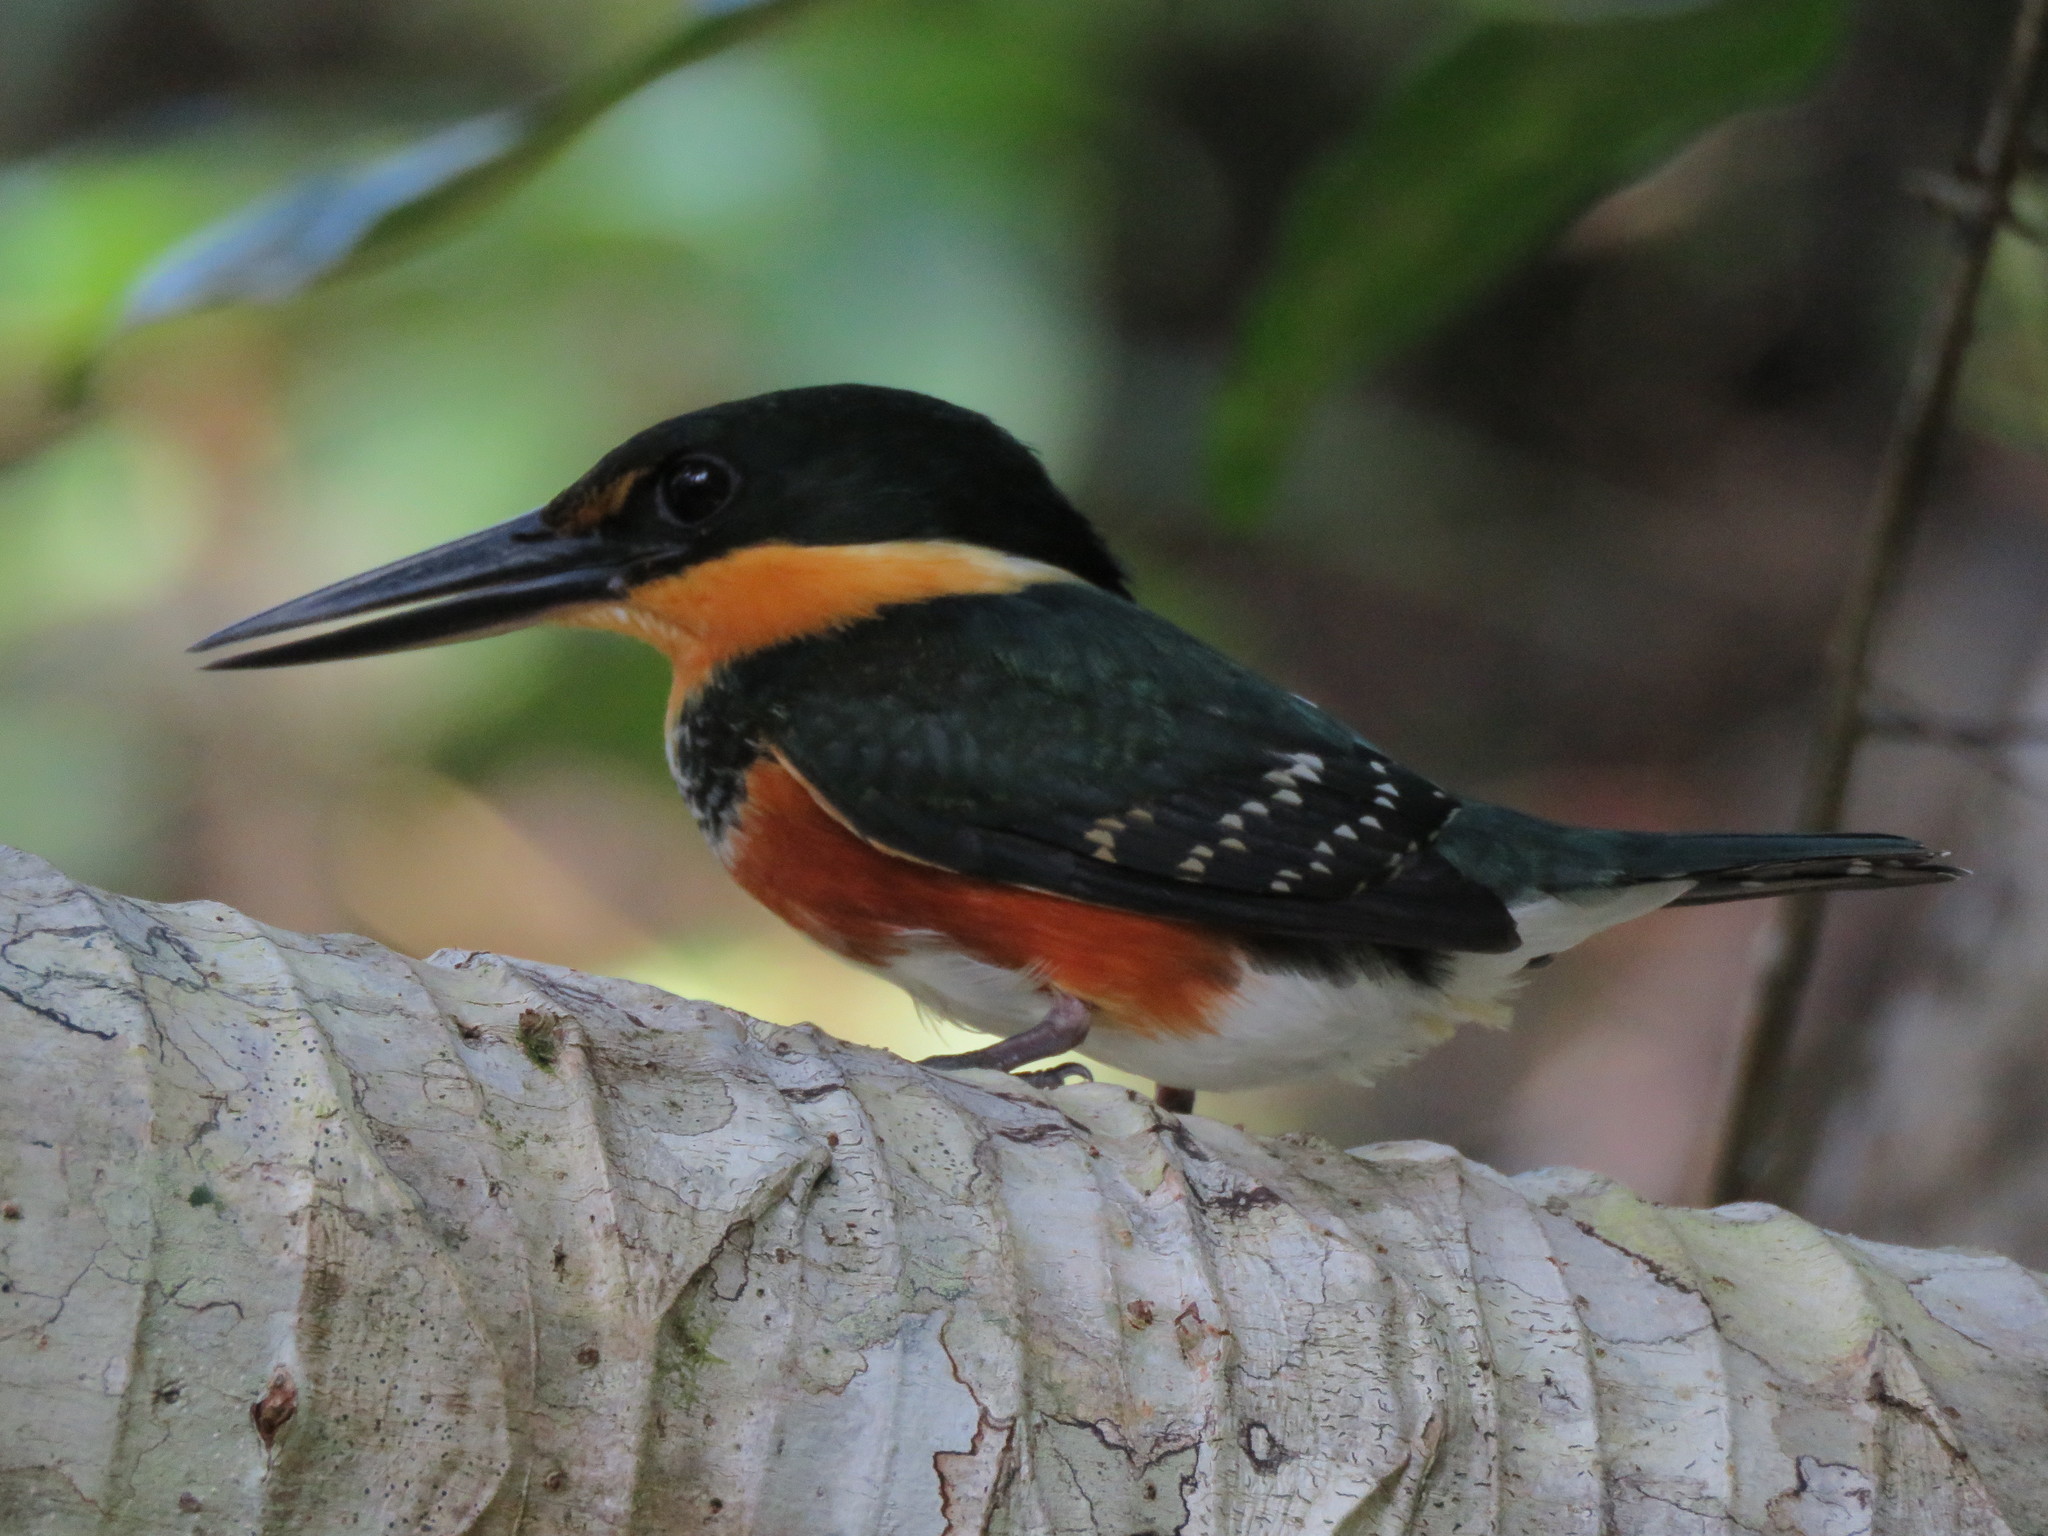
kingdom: Animalia
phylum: Chordata
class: Aves
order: Coraciiformes
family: Alcedinidae
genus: Chloroceryle
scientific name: Chloroceryle aenea
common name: American pygmy kingfisher
